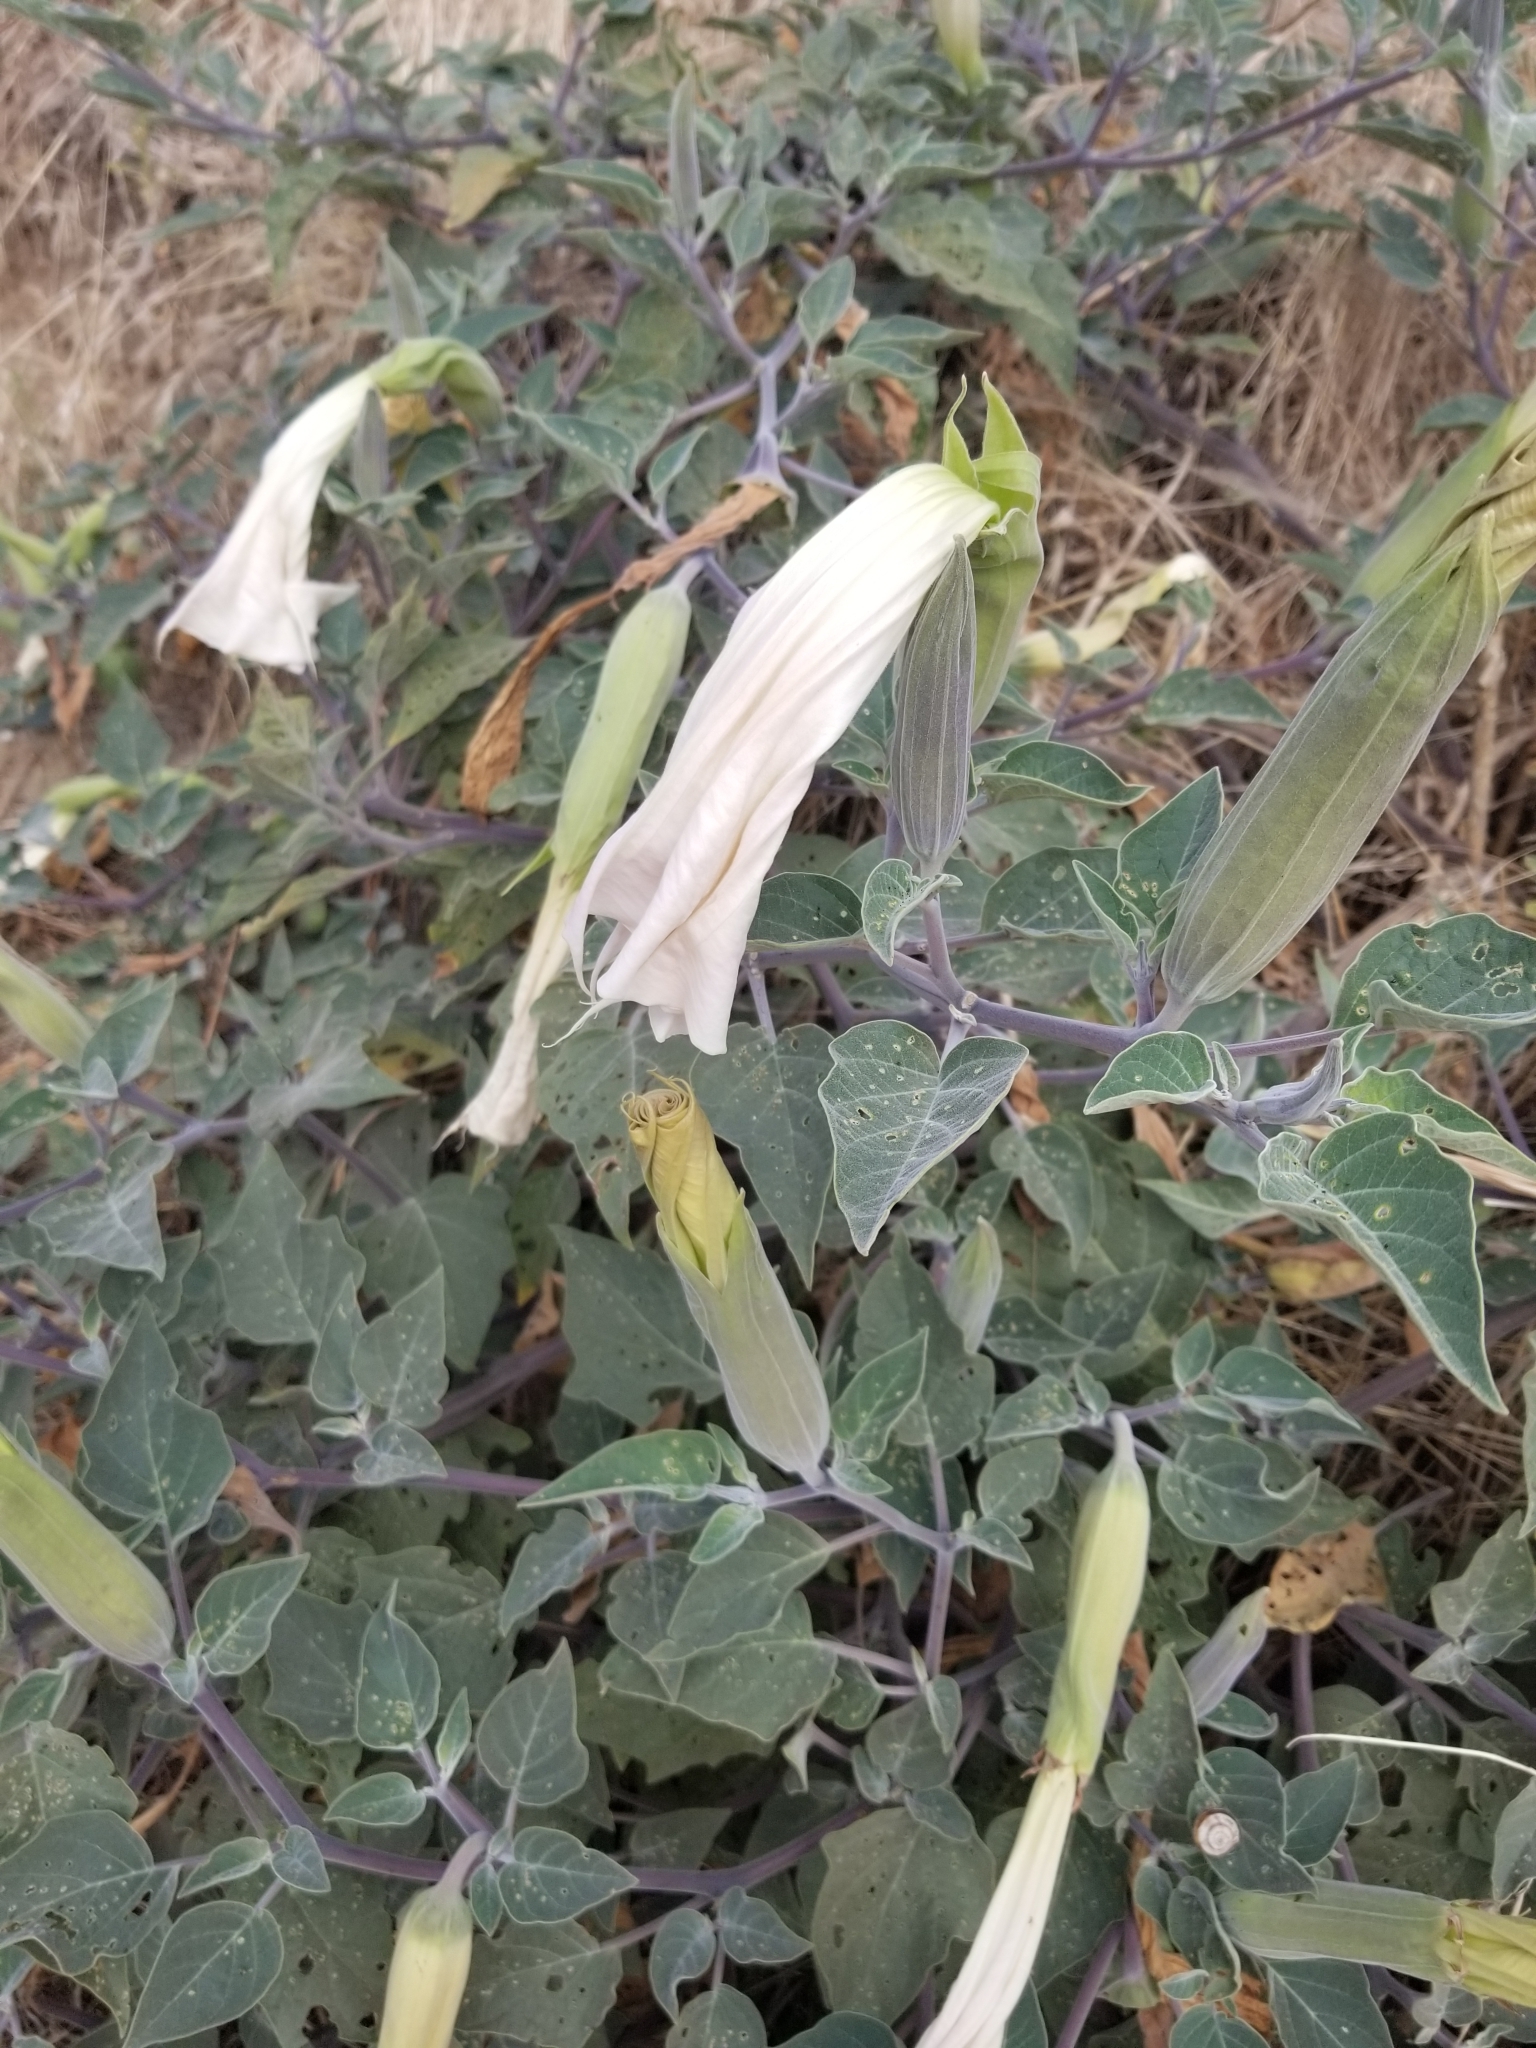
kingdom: Plantae
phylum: Tracheophyta
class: Magnoliopsida
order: Solanales
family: Solanaceae
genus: Datura
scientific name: Datura wrightii
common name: Sacred thorn-apple
